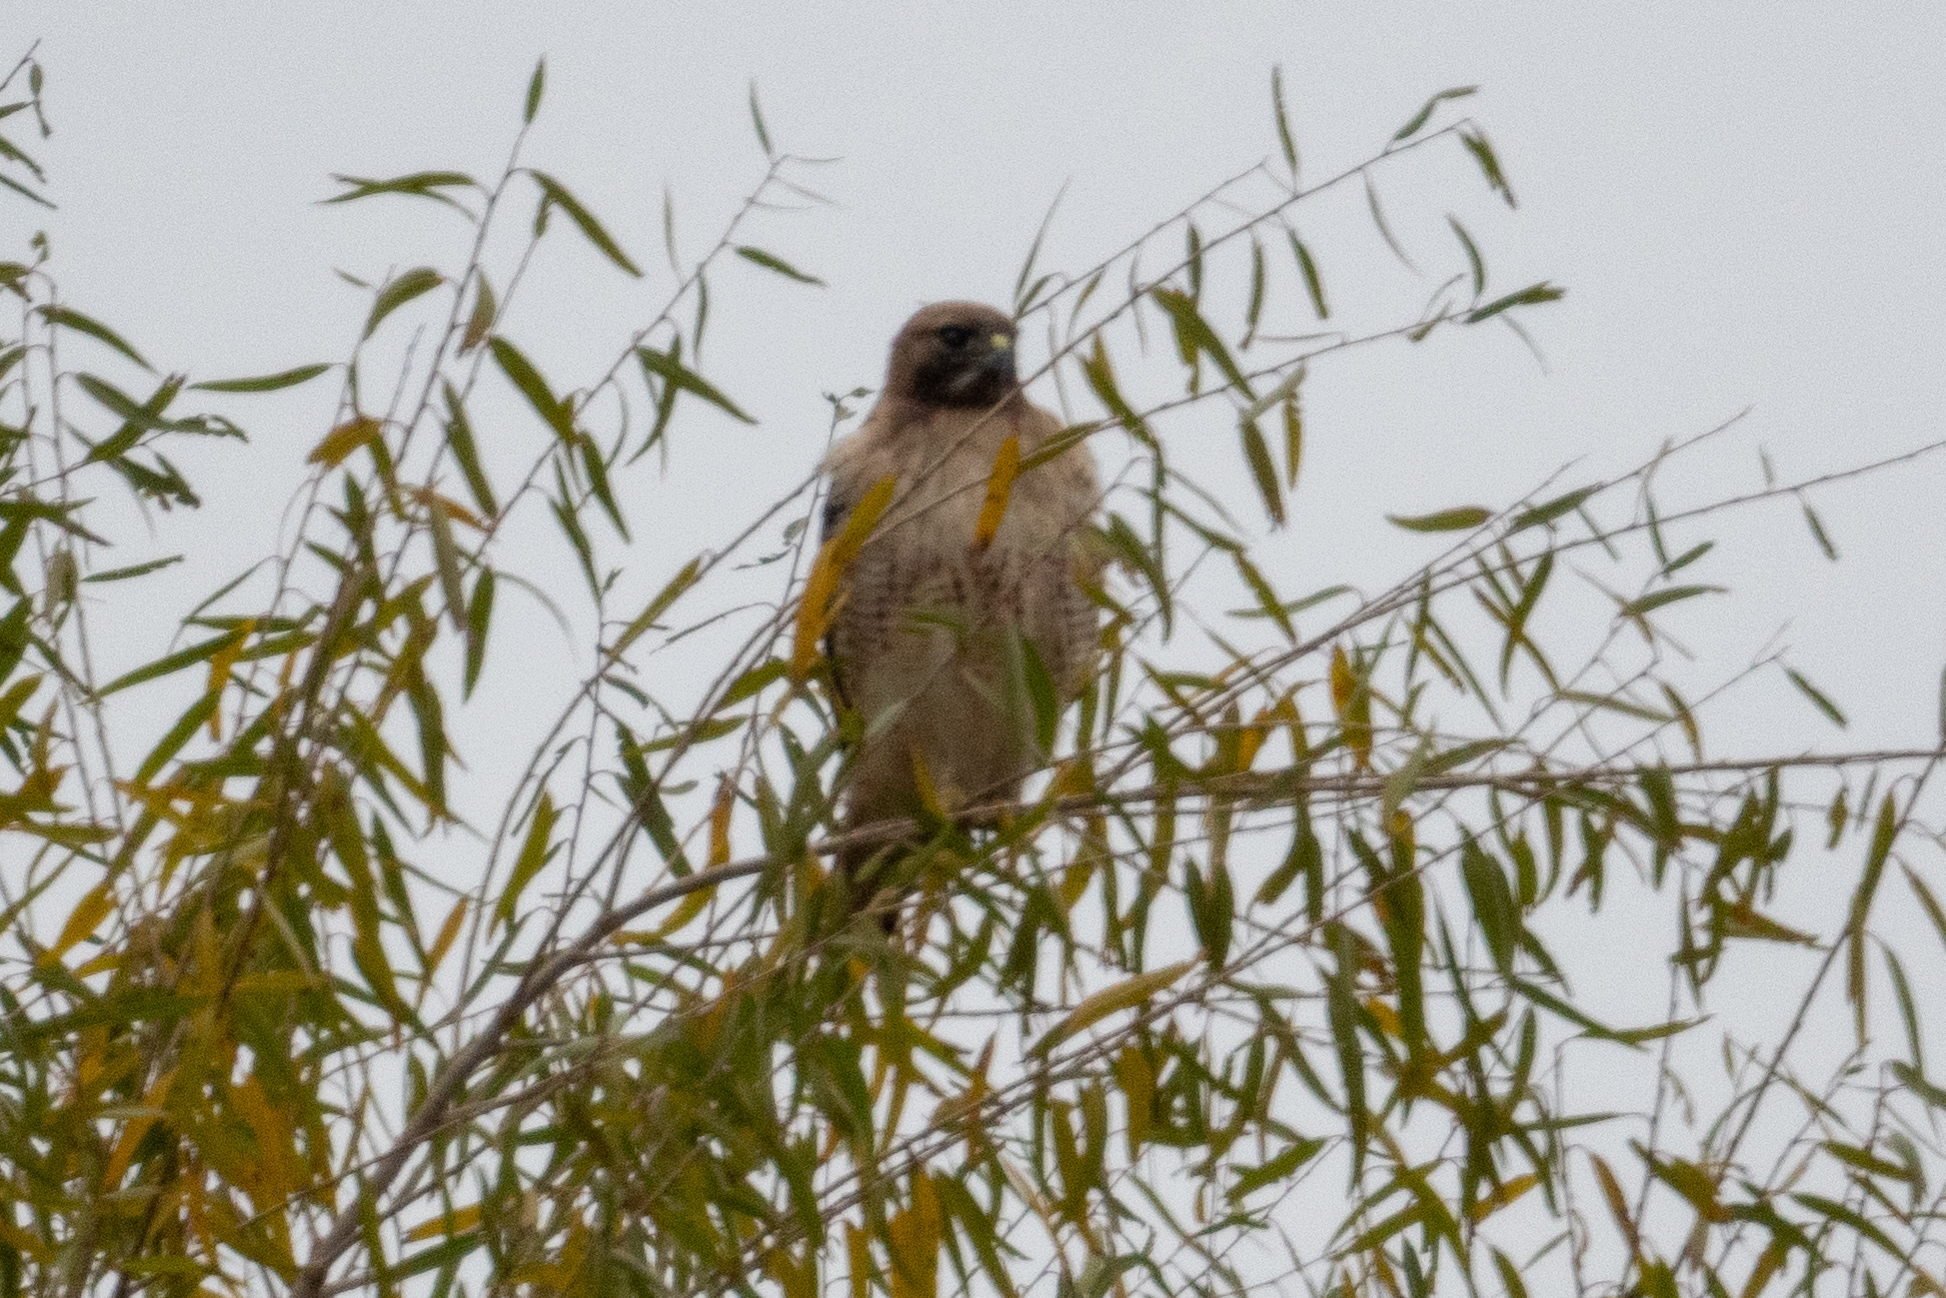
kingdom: Animalia
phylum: Chordata
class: Aves
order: Accipitriformes
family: Accipitridae
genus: Buteo
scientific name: Buteo jamaicensis
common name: Red-tailed hawk
